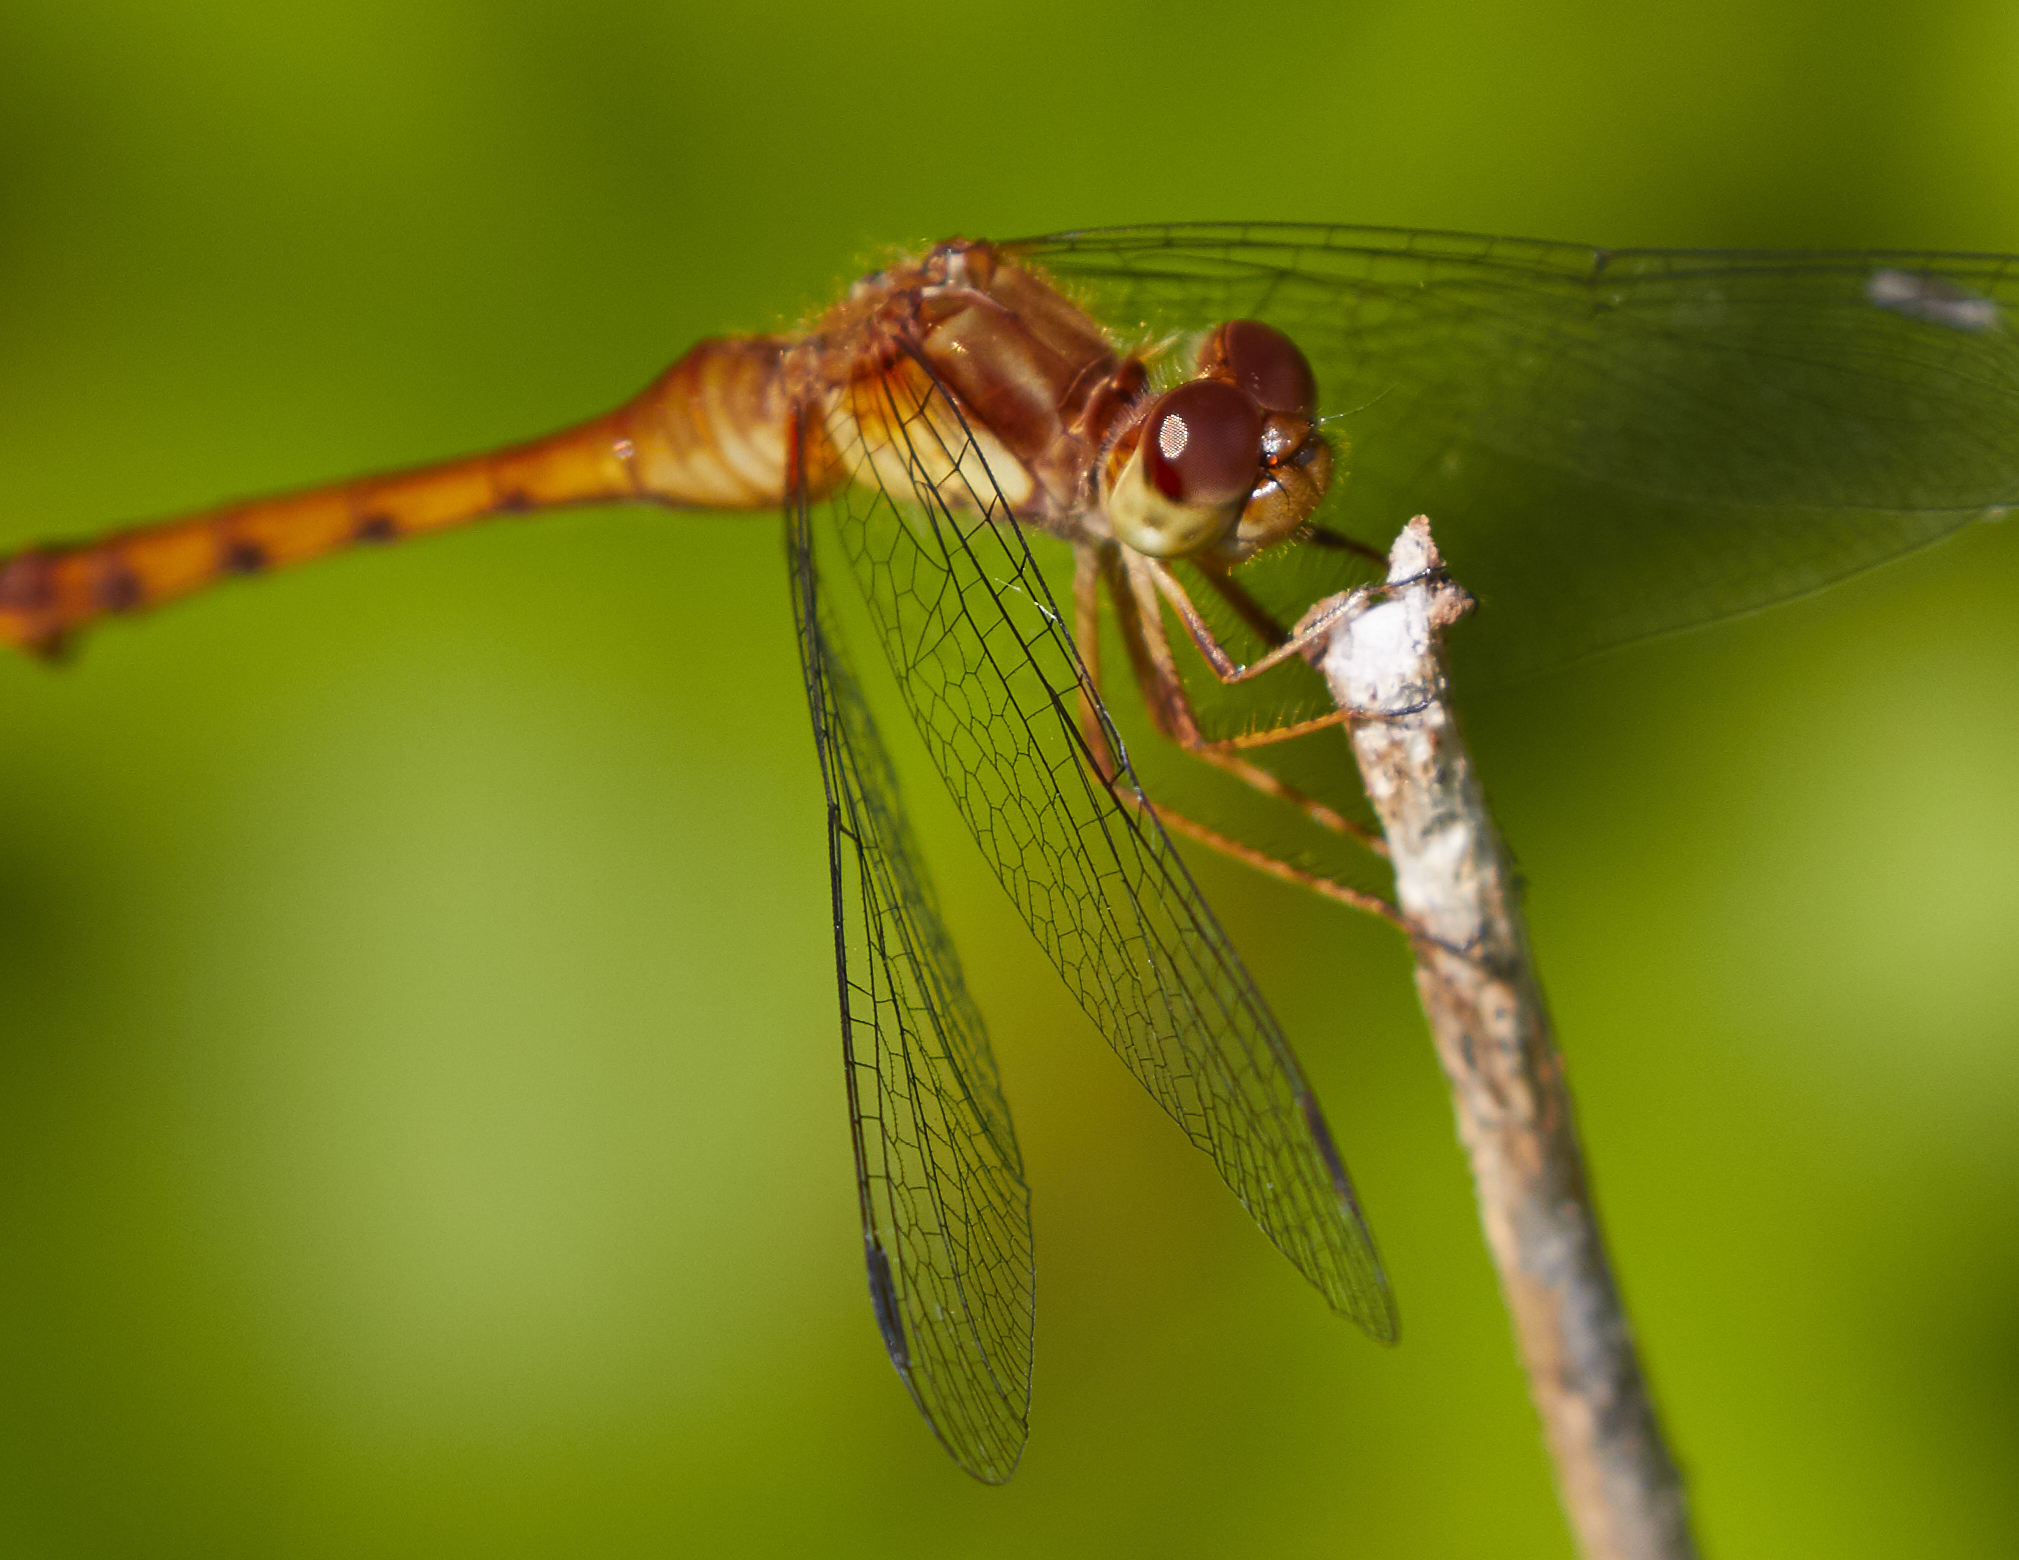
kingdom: Animalia
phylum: Arthropoda
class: Insecta
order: Odonata
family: Libellulidae
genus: Sympetrum
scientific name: Sympetrum vicinum
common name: Autumn meadowhawk
